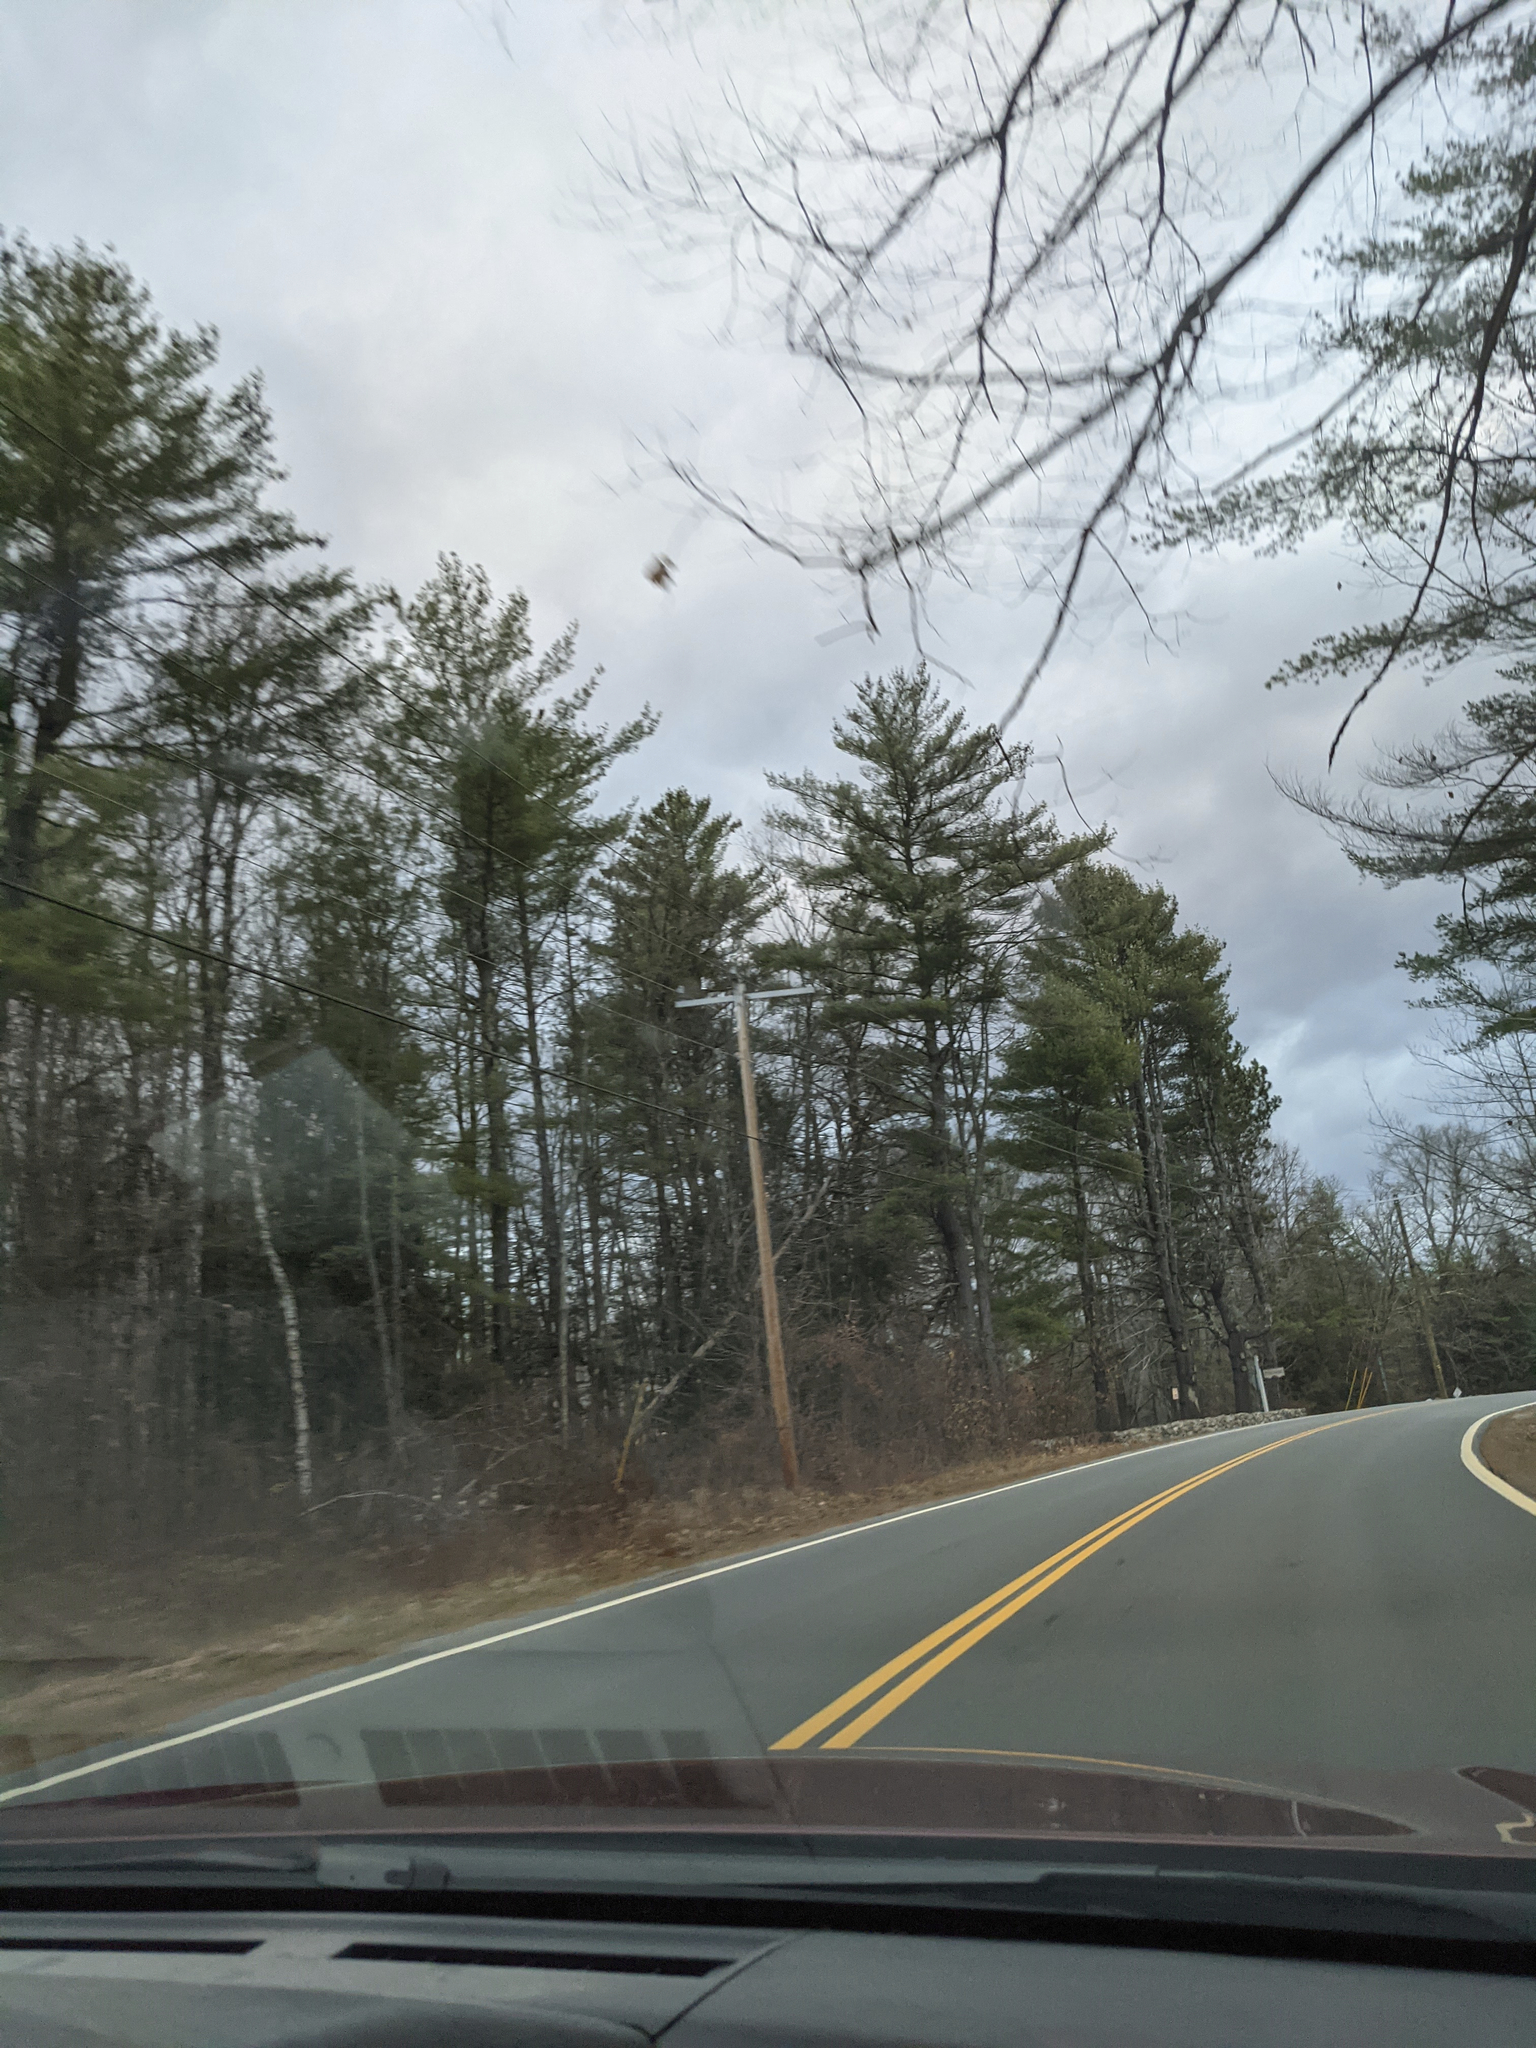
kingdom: Plantae
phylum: Tracheophyta
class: Pinopsida
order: Pinales
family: Pinaceae
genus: Pinus
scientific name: Pinus strobus
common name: Weymouth pine
